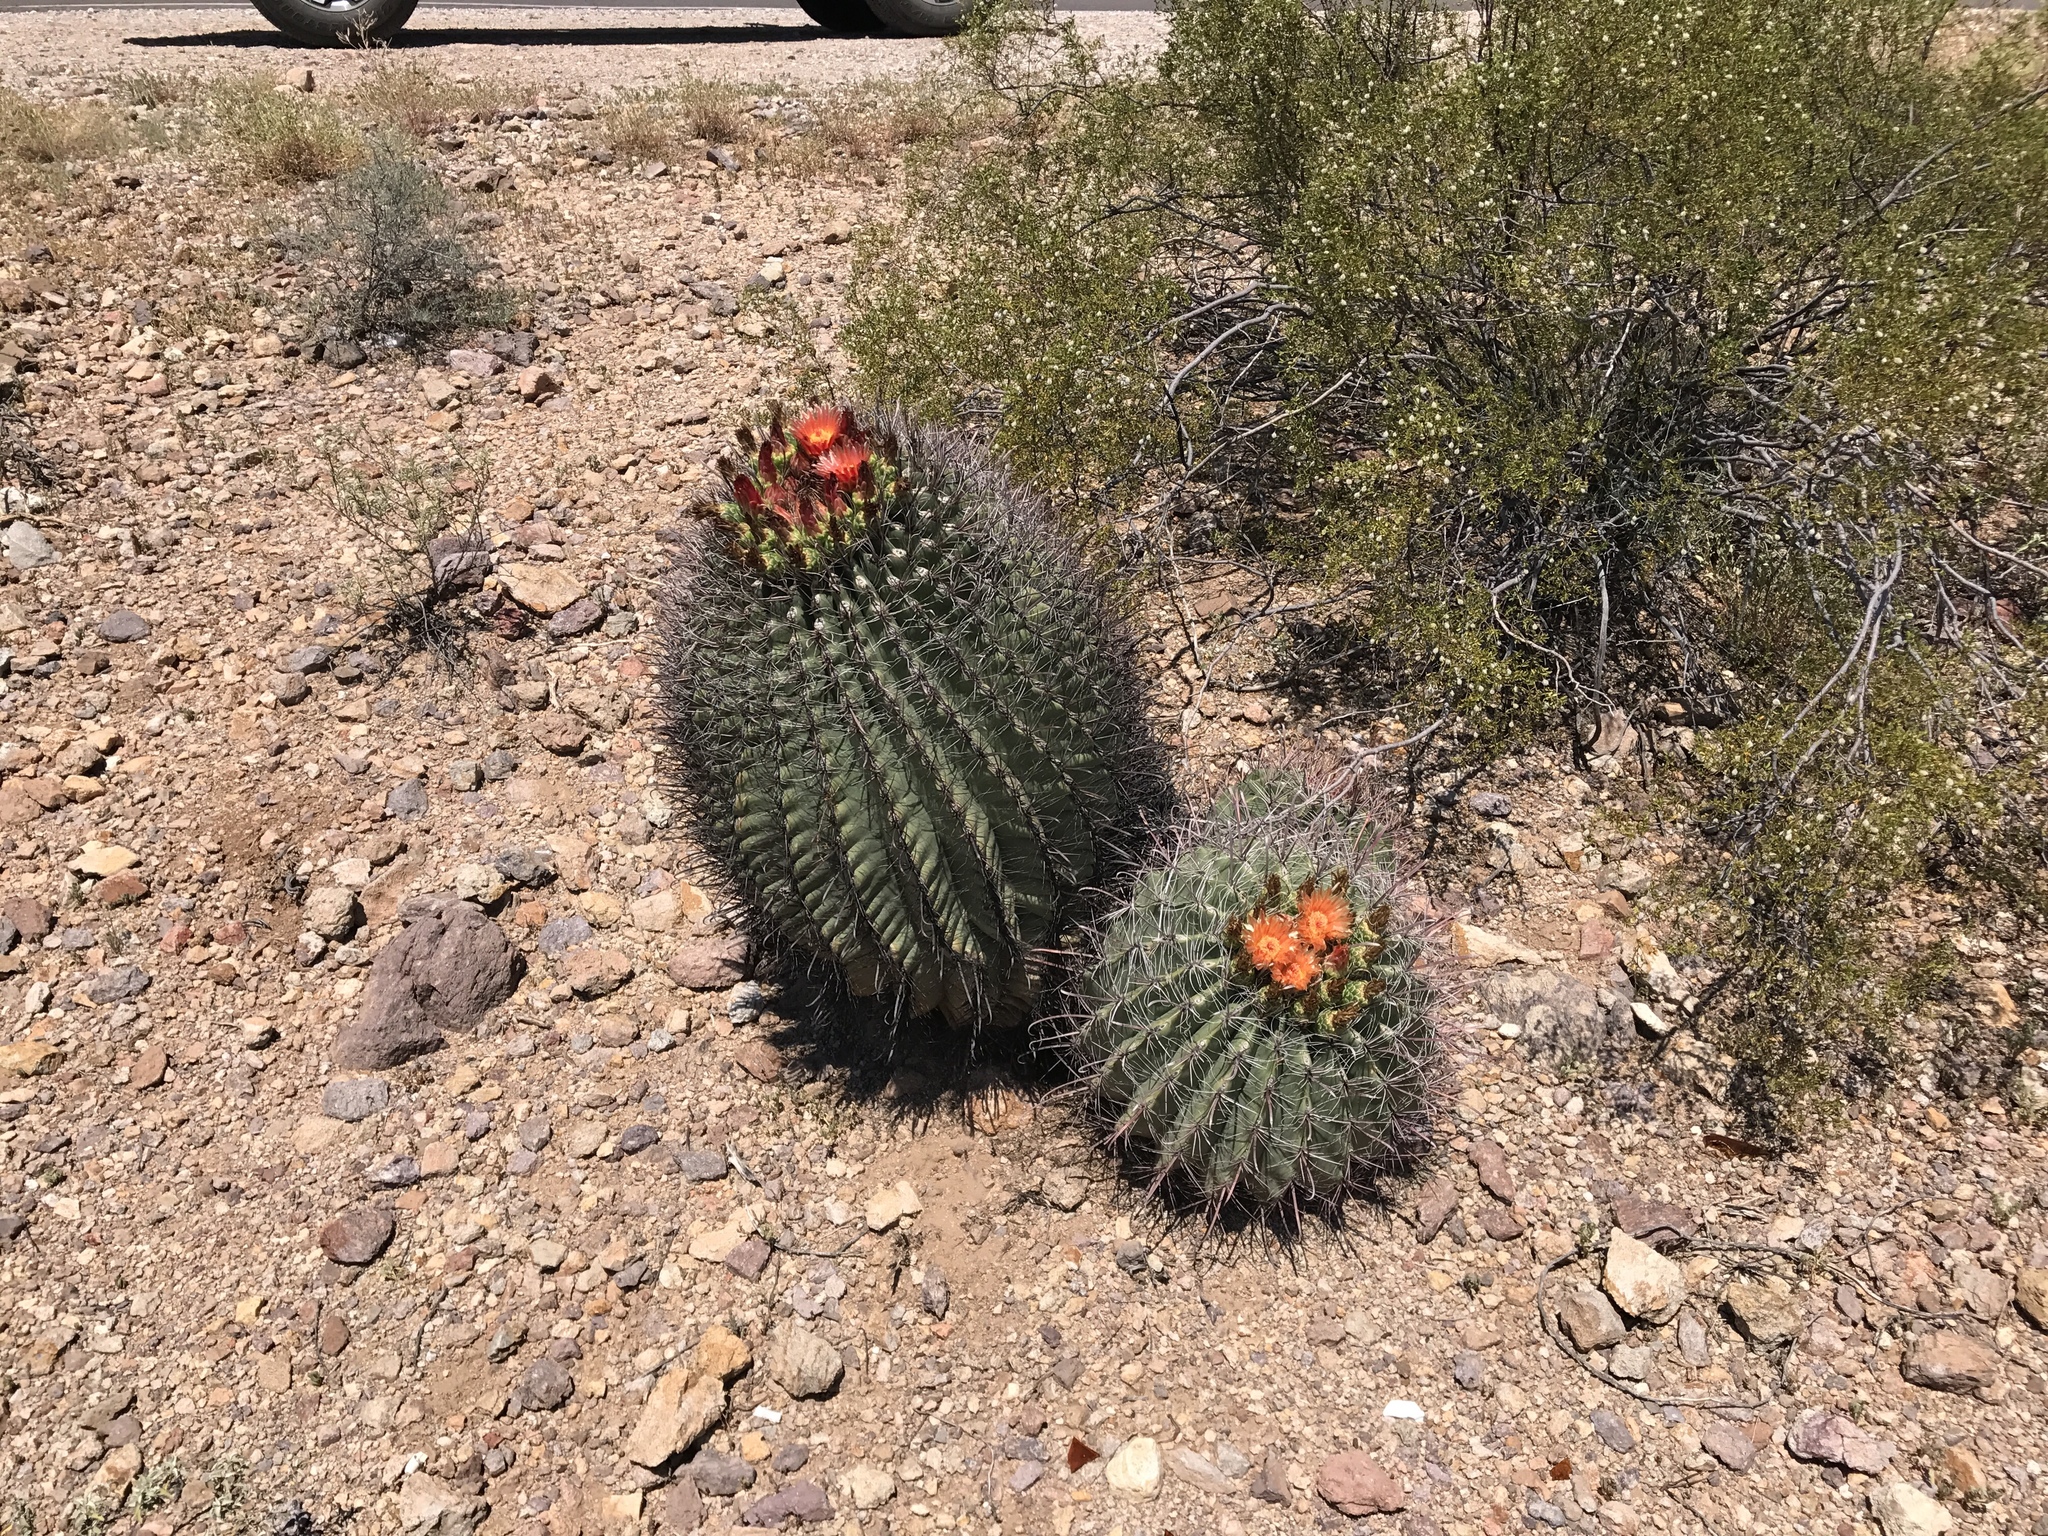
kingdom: Plantae
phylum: Tracheophyta
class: Magnoliopsida
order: Caryophyllales
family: Cactaceae
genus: Ferocactus
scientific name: Ferocactus wislizeni
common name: Candy barrel cactus
